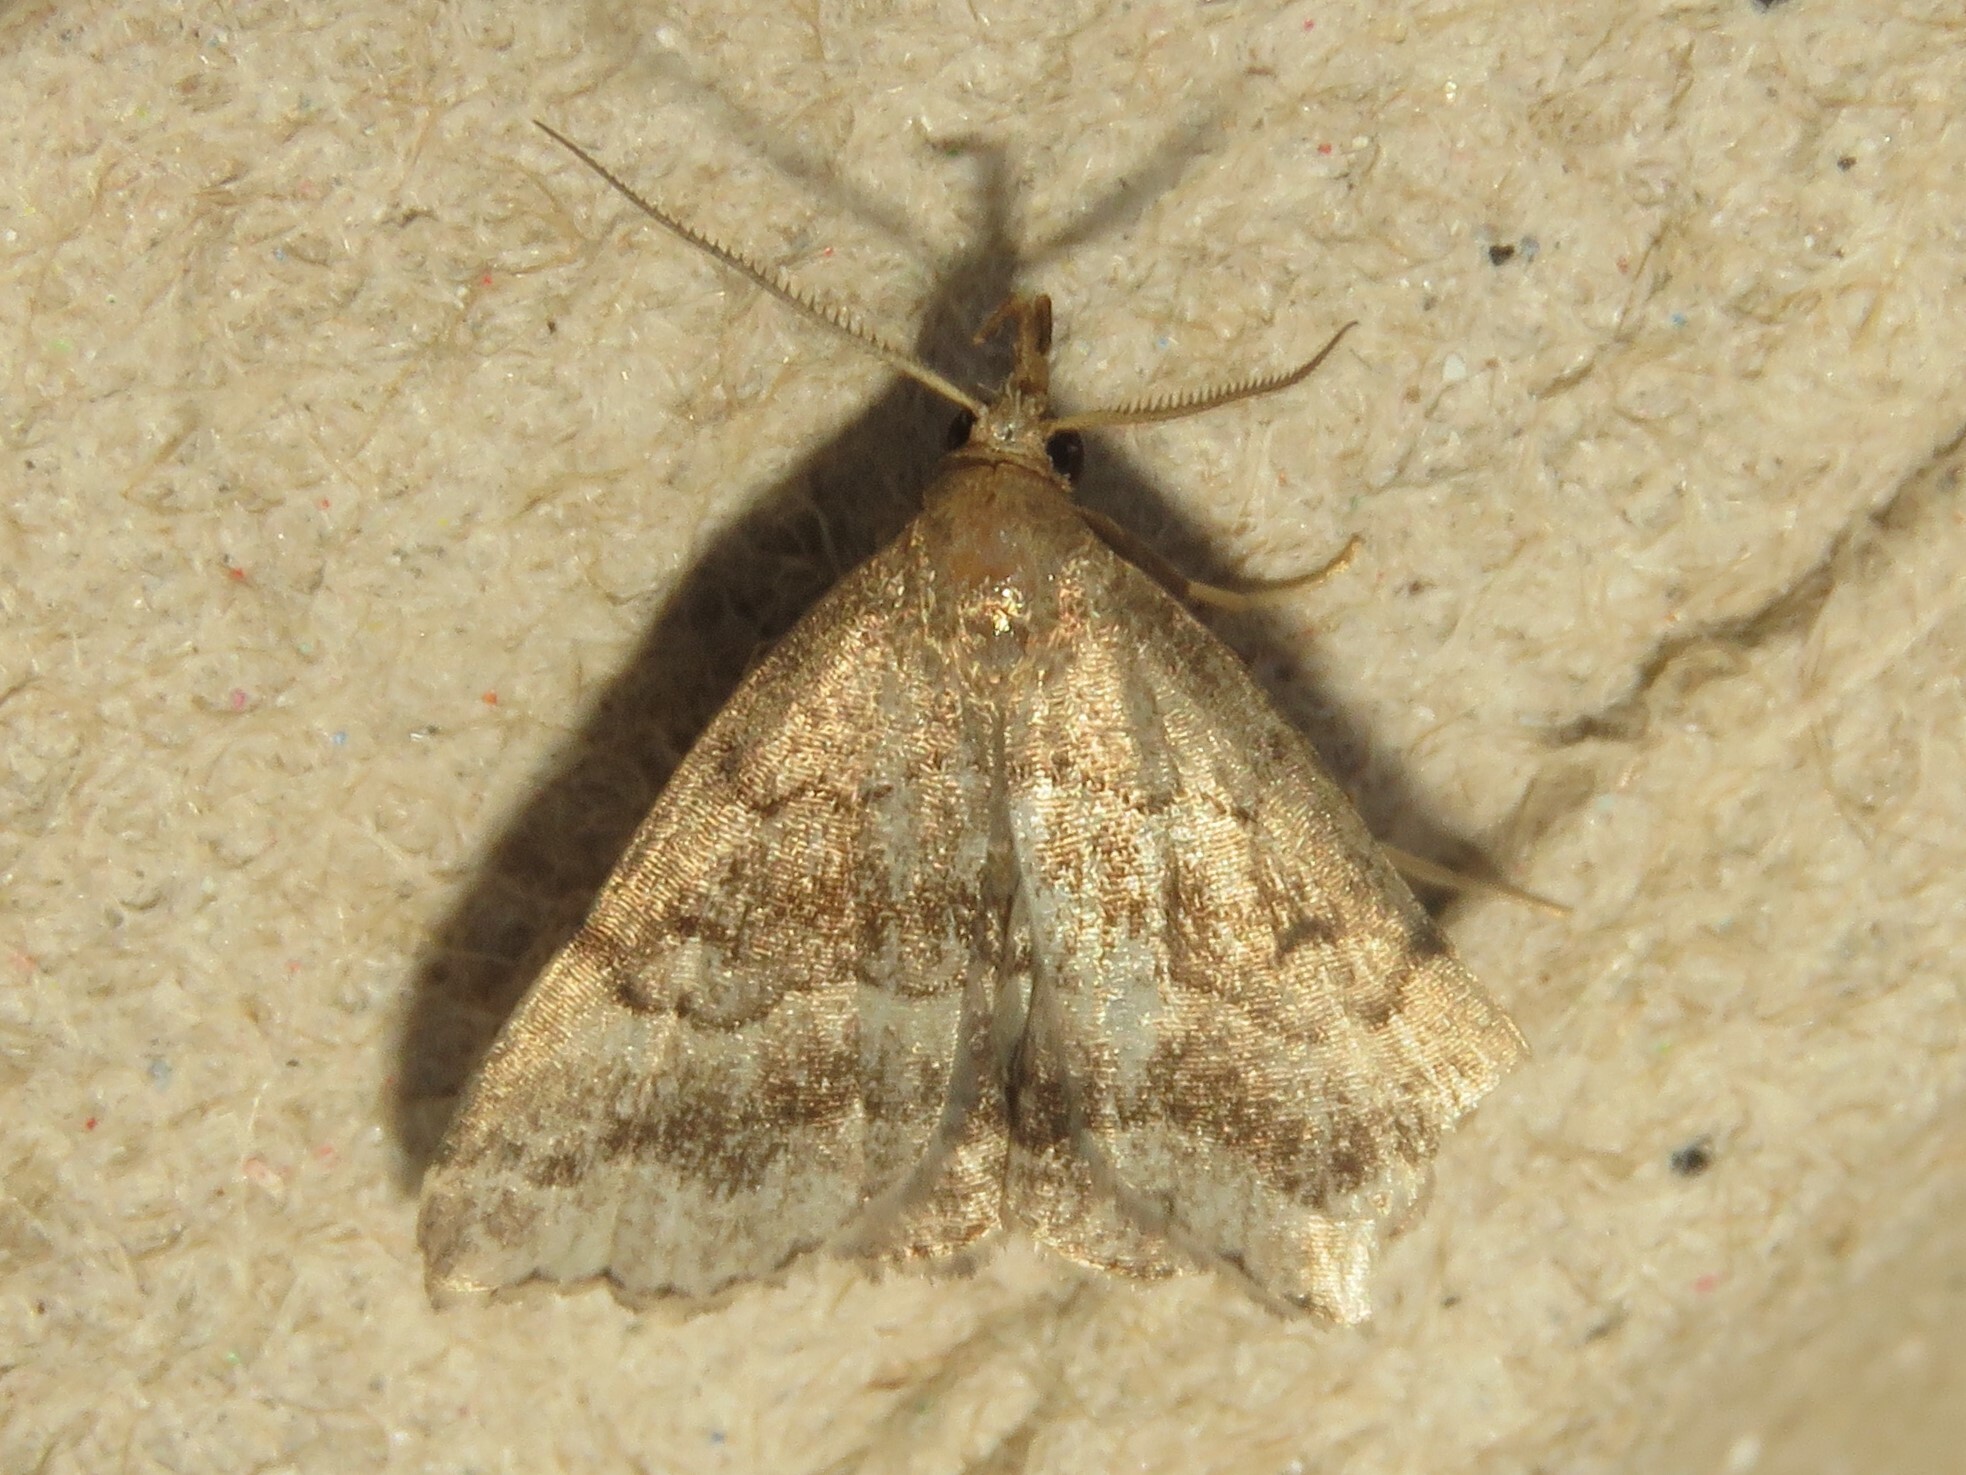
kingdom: Animalia
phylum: Arthropoda
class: Insecta
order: Lepidoptera
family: Erebidae
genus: Phalaenostola
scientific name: Phalaenostola larentioides
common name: Black-banded owlet
